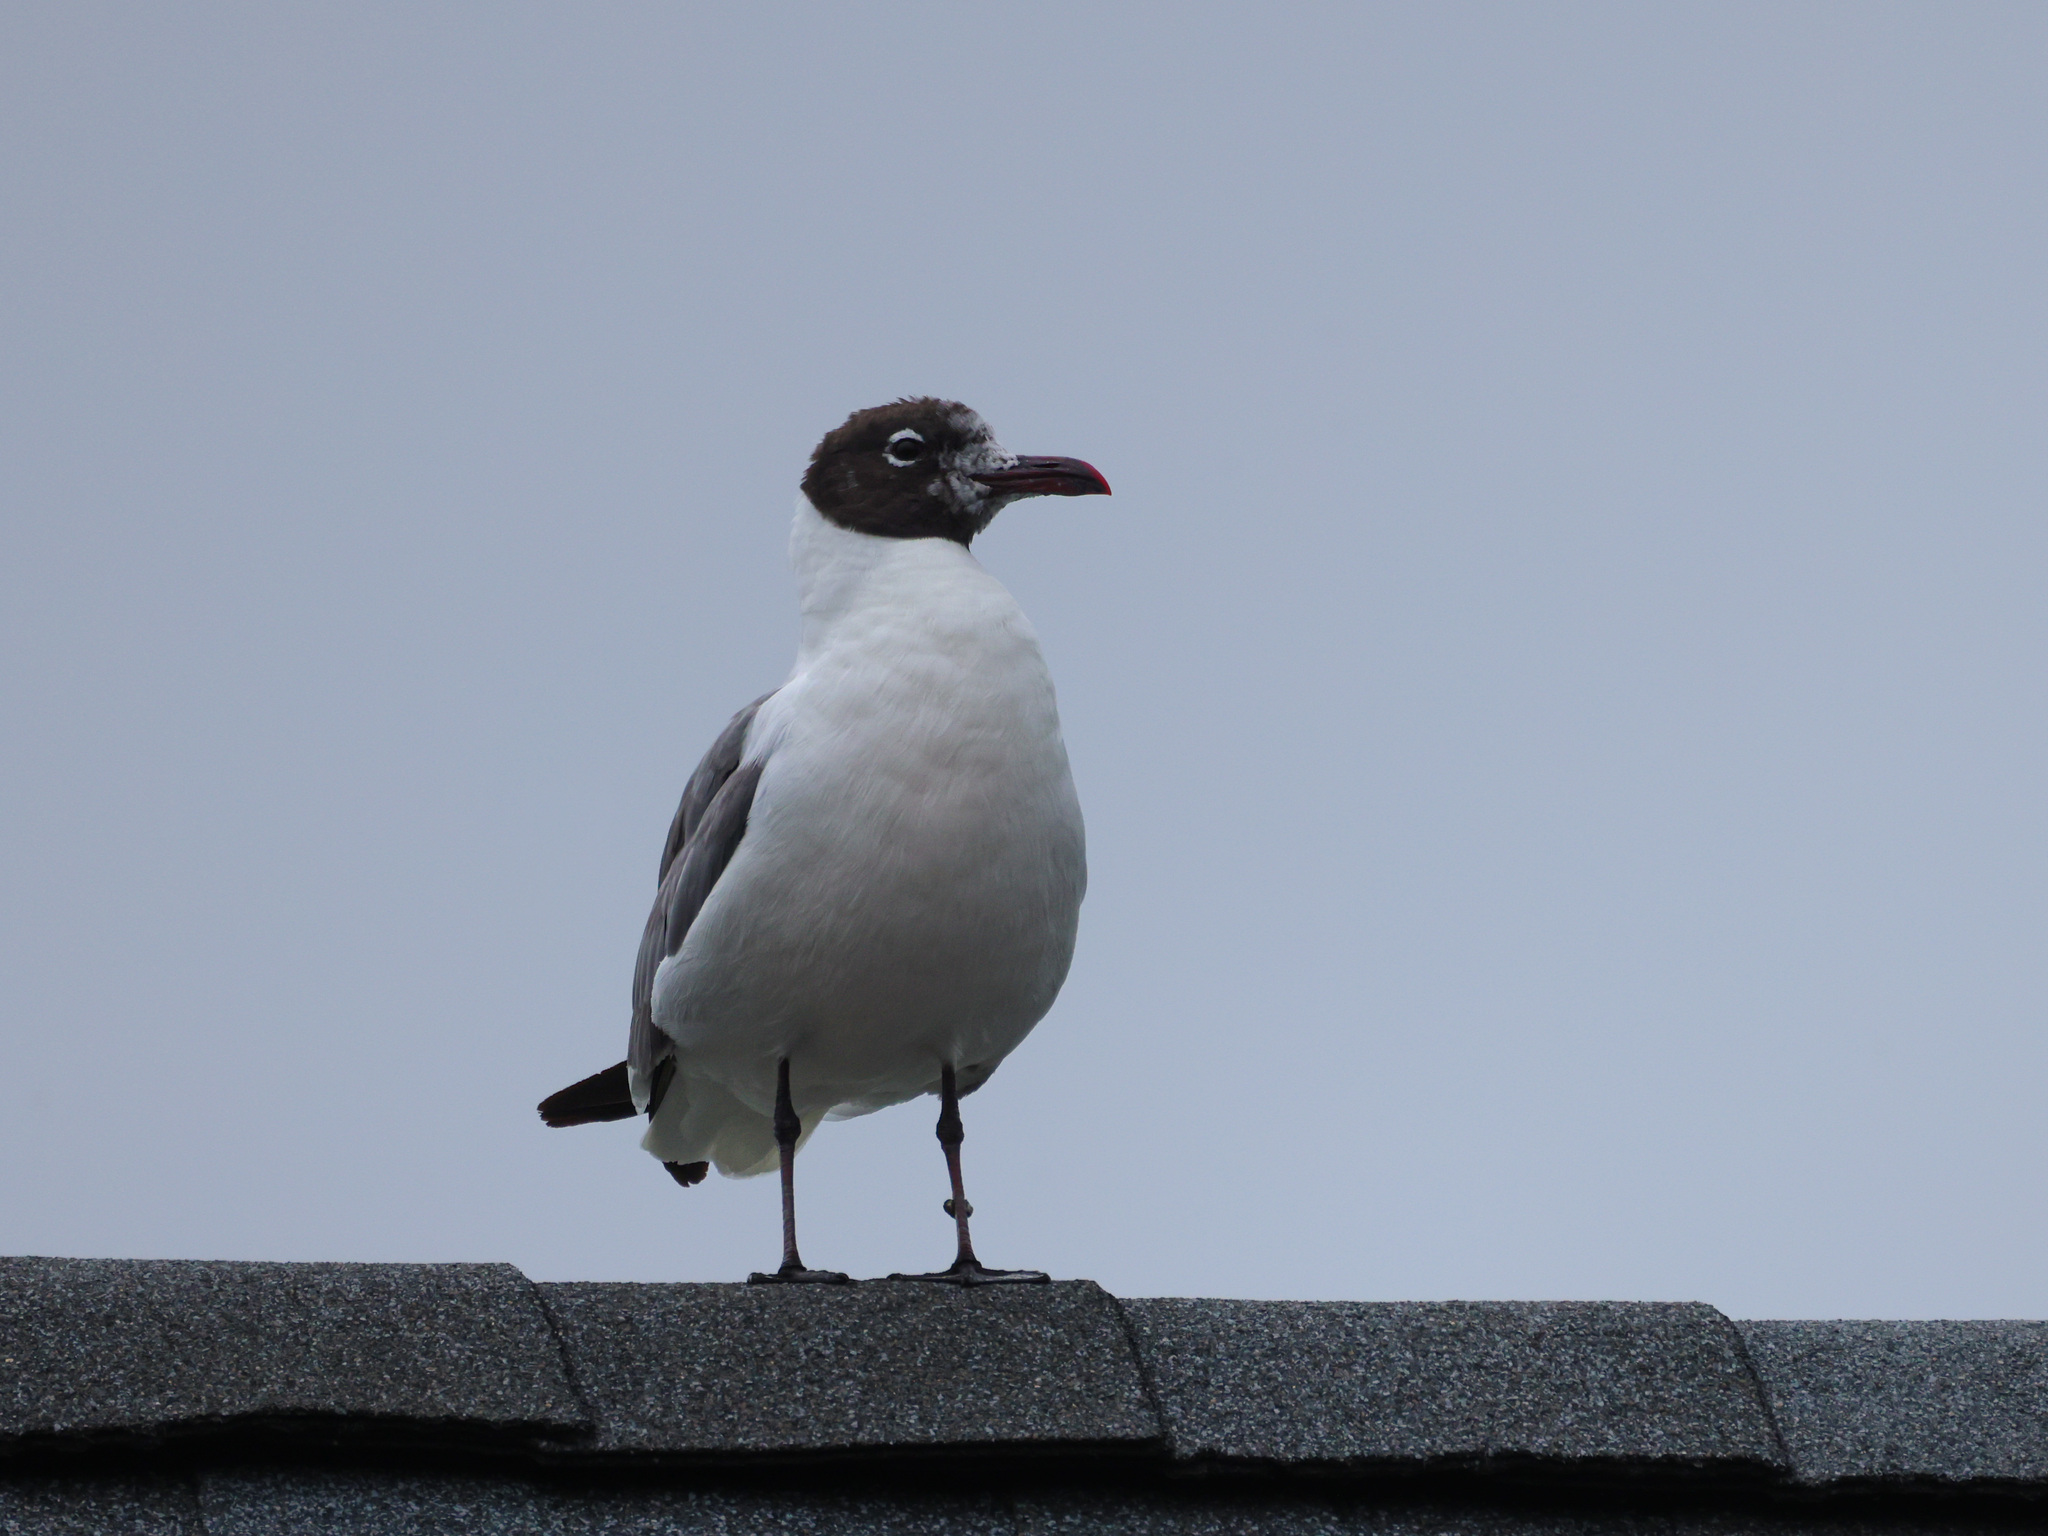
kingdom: Animalia
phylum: Chordata
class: Aves
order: Charadriiformes
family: Laridae
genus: Leucophaeus
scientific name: Leucophaeus atricilla
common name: Laughing gull
